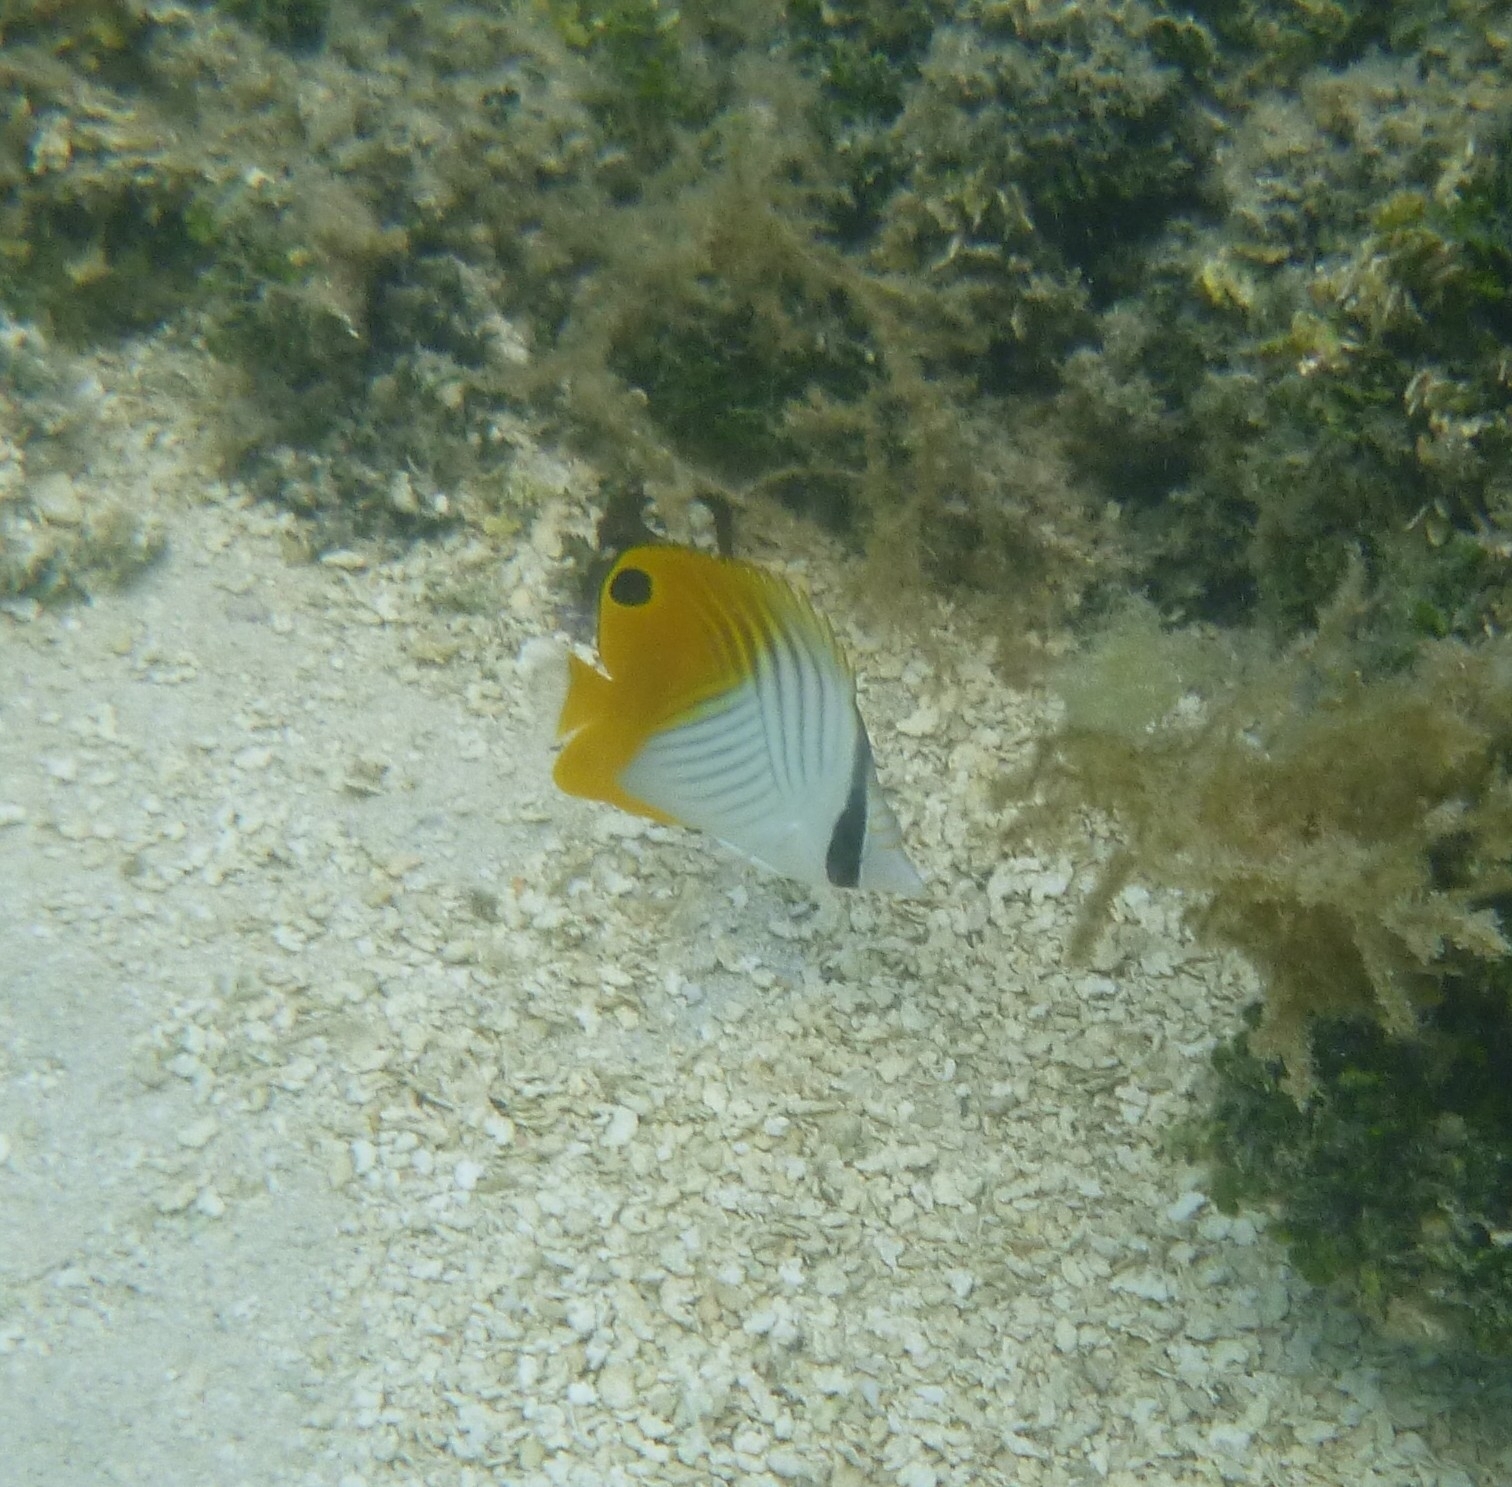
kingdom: Animalia
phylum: Chordata
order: Perciformes
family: Chaetodontidae
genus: Chaetodon
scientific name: Chaetodon auriga
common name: Threadfin butterflyfish
